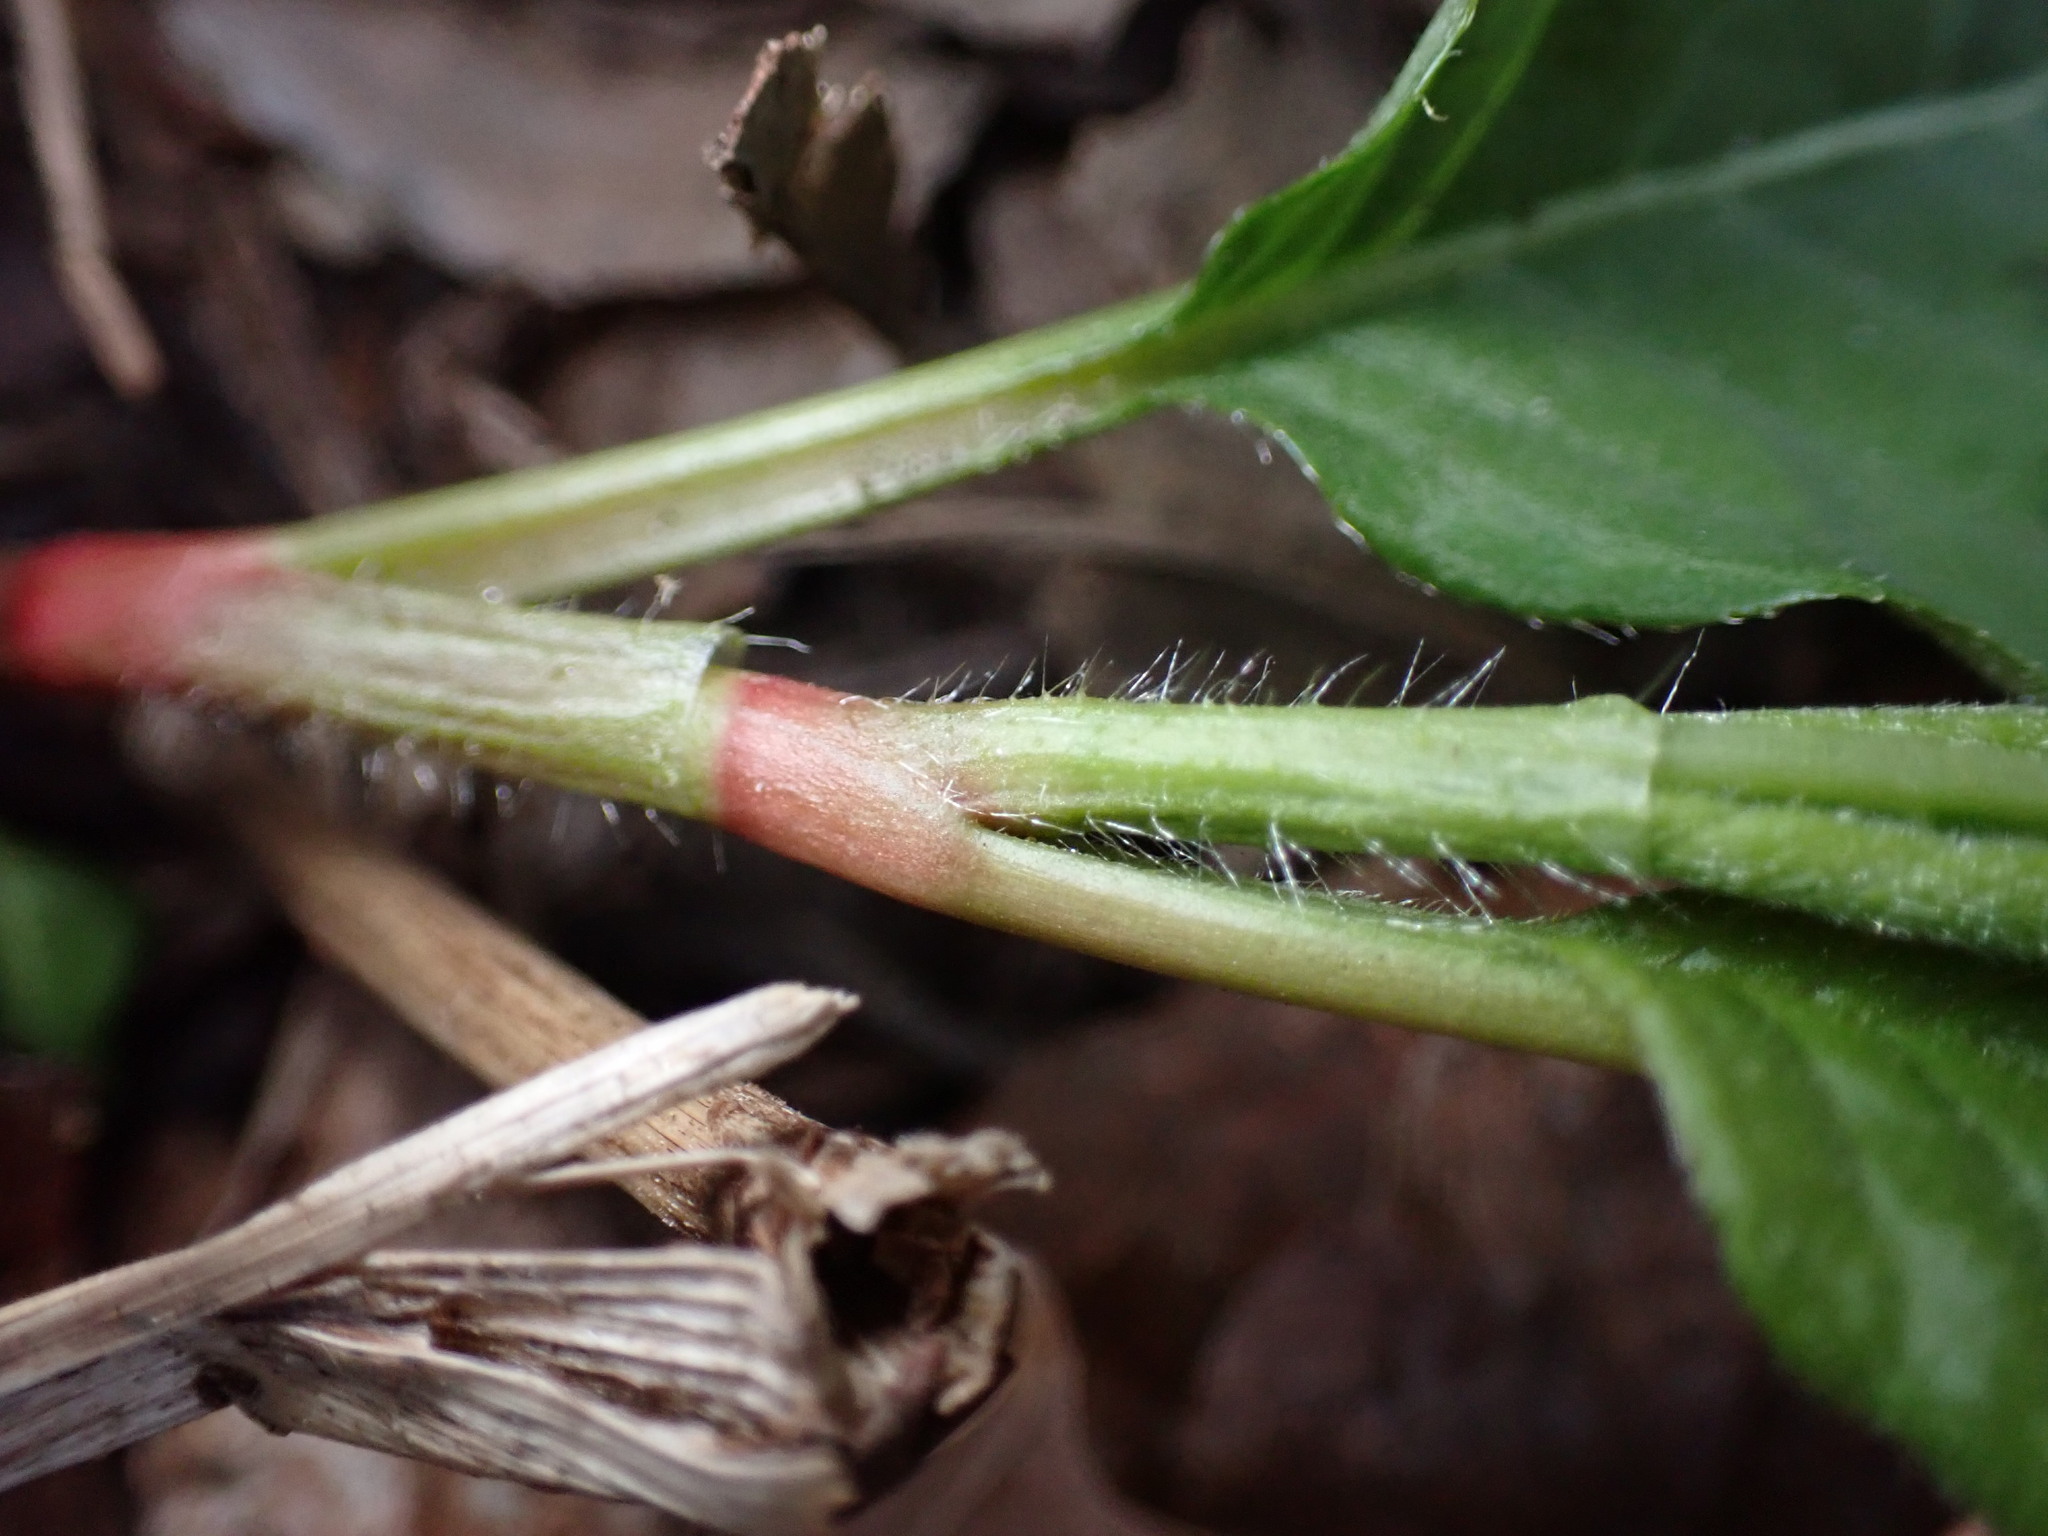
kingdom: Plantae
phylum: Tracheophyta
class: Magnoliopsida
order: Caryophyllales
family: Polygonaceae
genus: Persicaria
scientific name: Persicaria virginiana
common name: Jumpseed
